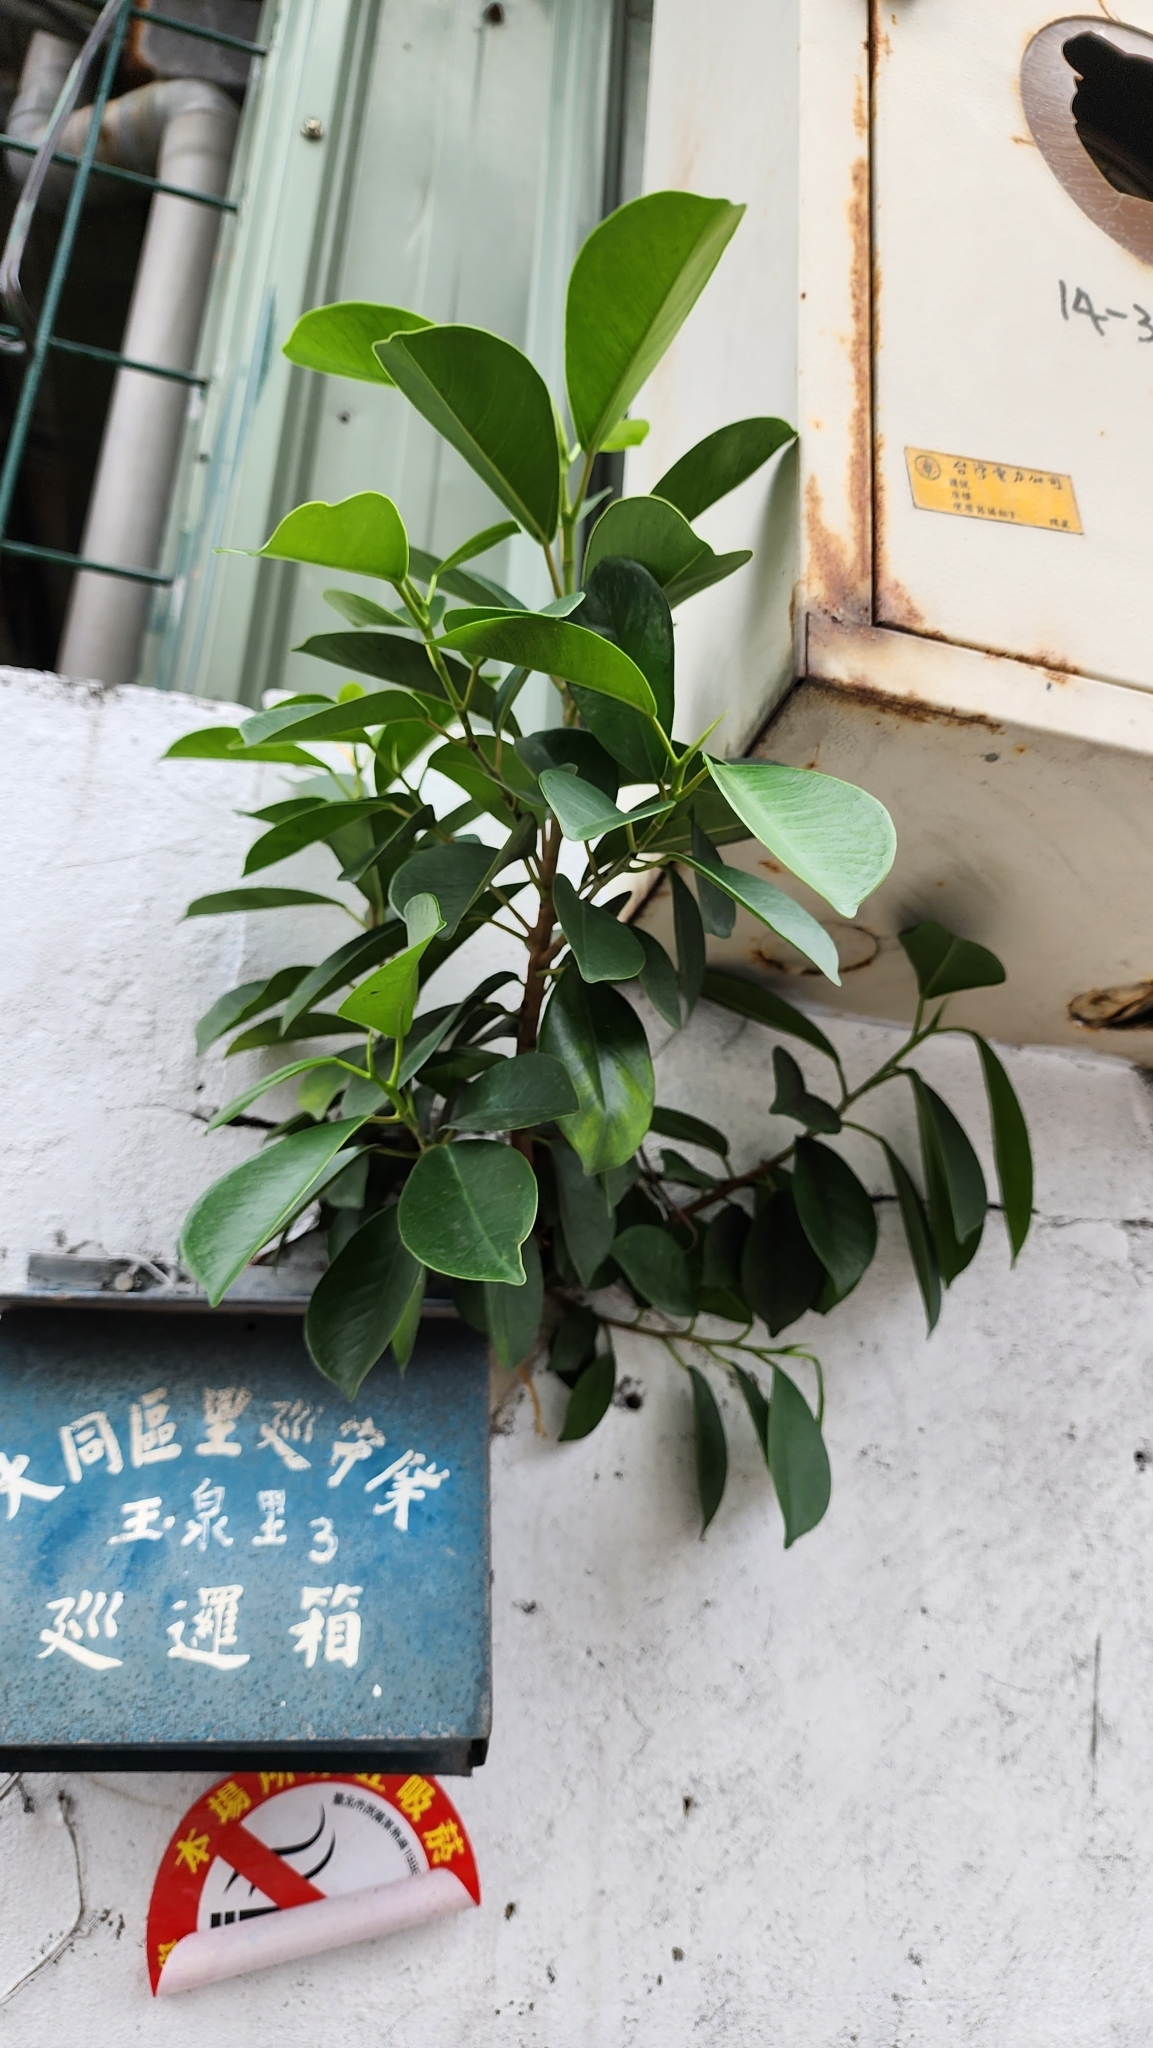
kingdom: Plantae
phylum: Tracheophyta
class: Magnoliopsida
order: Rosales
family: Moraceae
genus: Ficus
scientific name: Ficus microcarpa
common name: Chinese banyan
